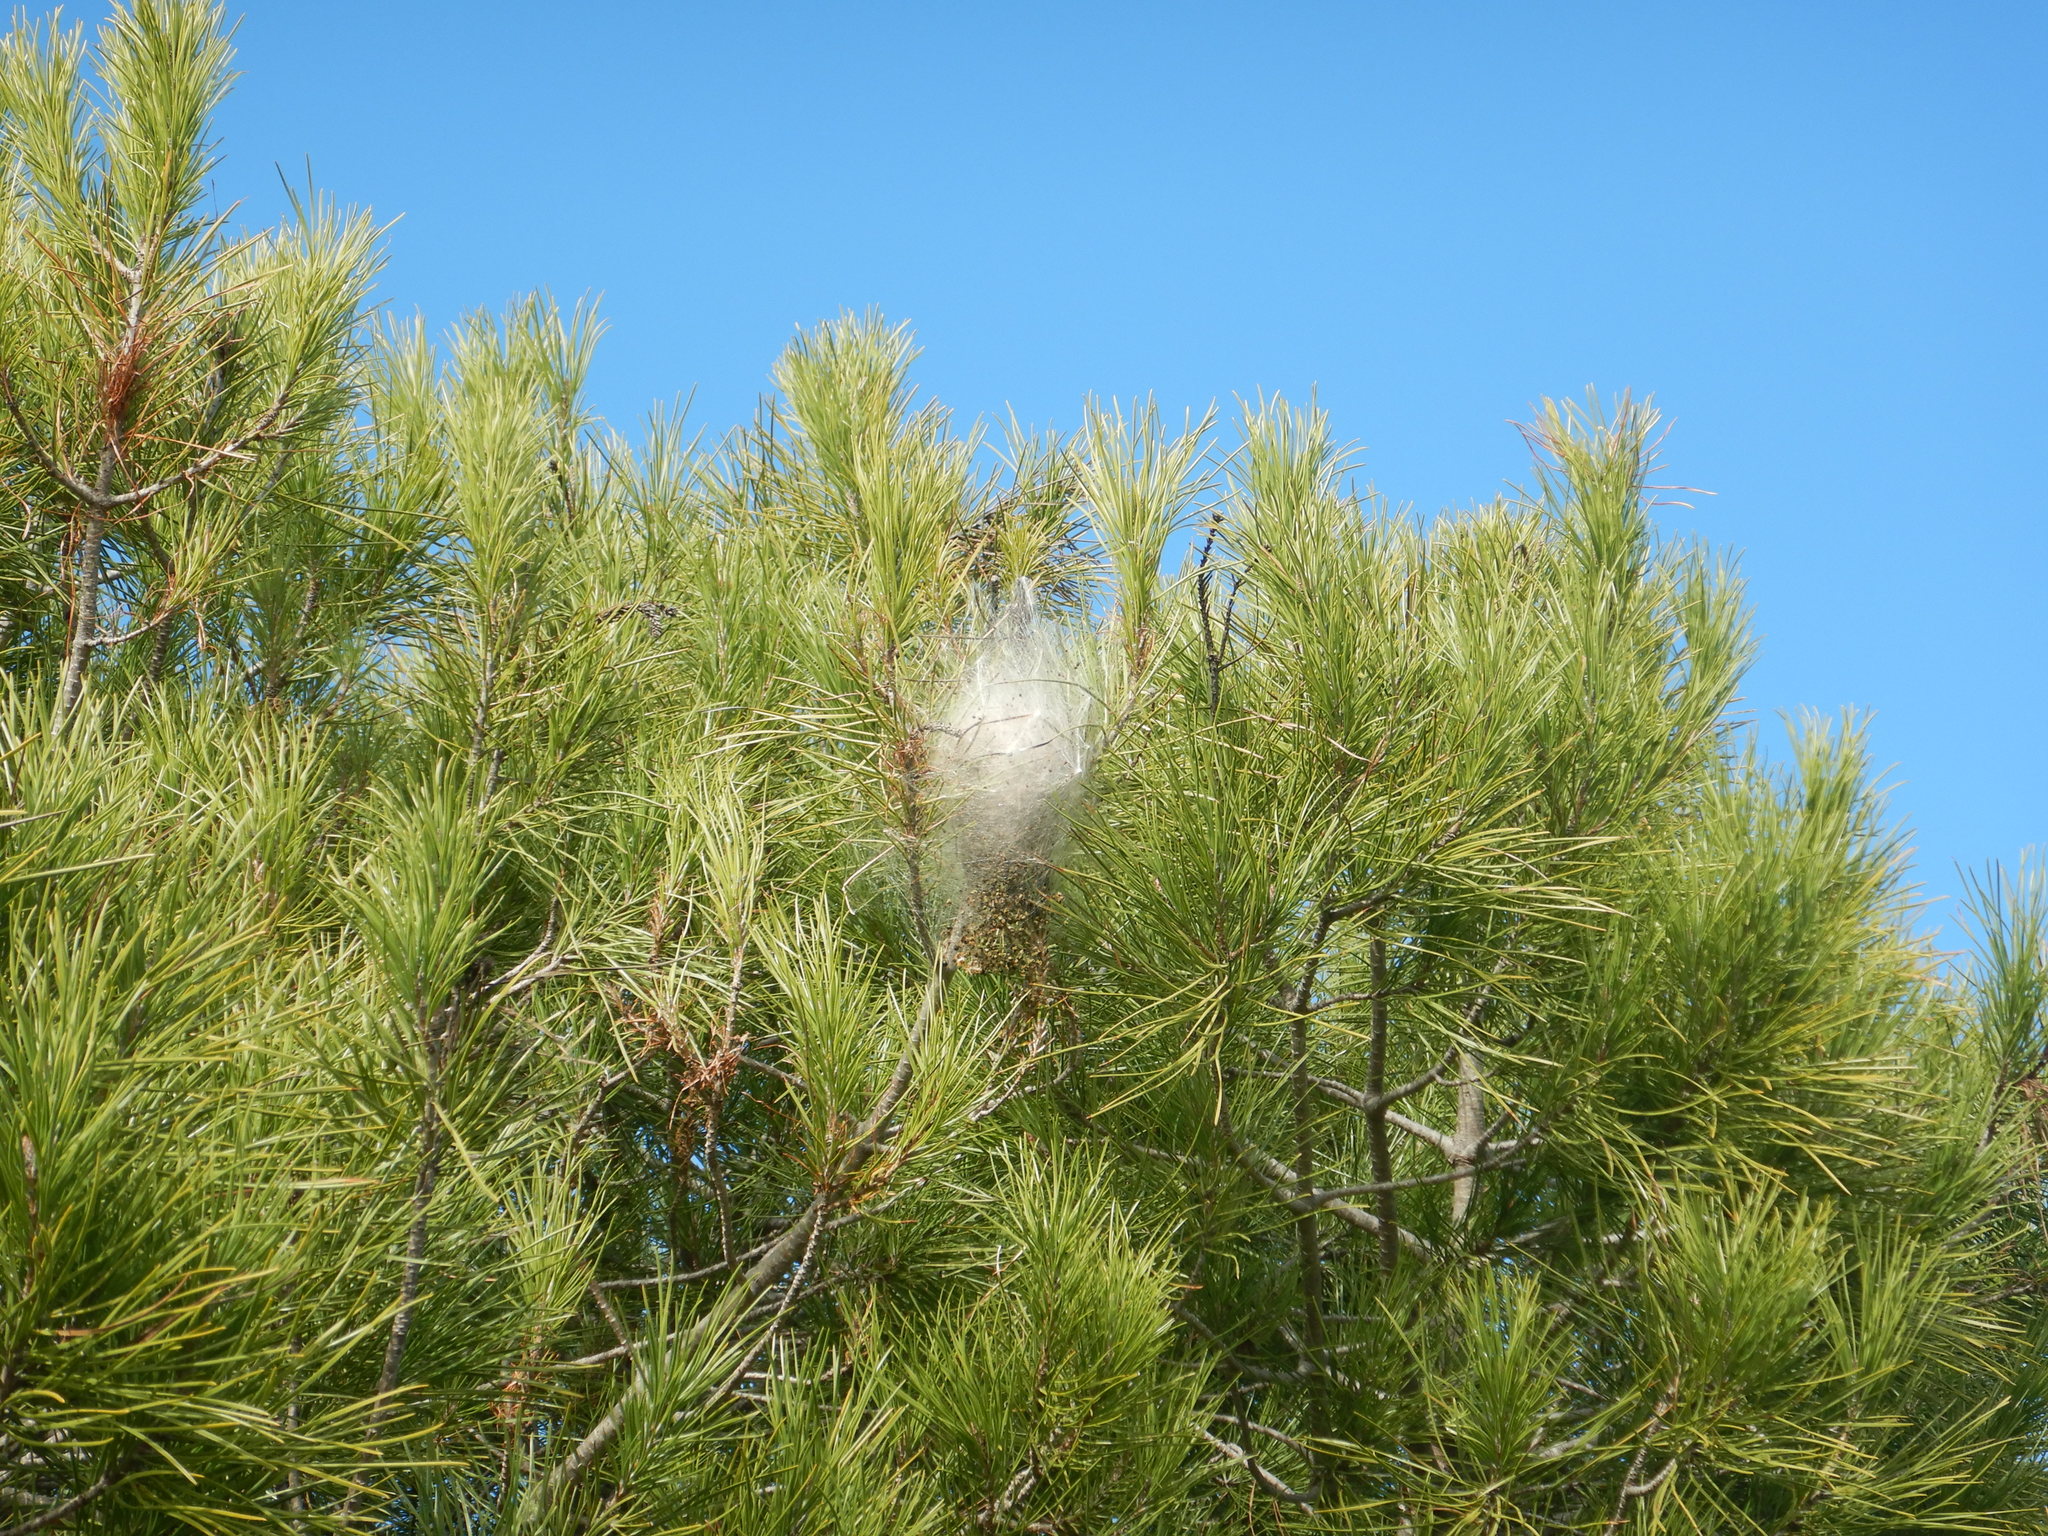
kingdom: Animalia
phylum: Arthropoda
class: Insecta
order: Lepidoptera
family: Notodontidae
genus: Thaumetopoea
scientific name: Thaumetopoea pityocampa
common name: Pine processionary
